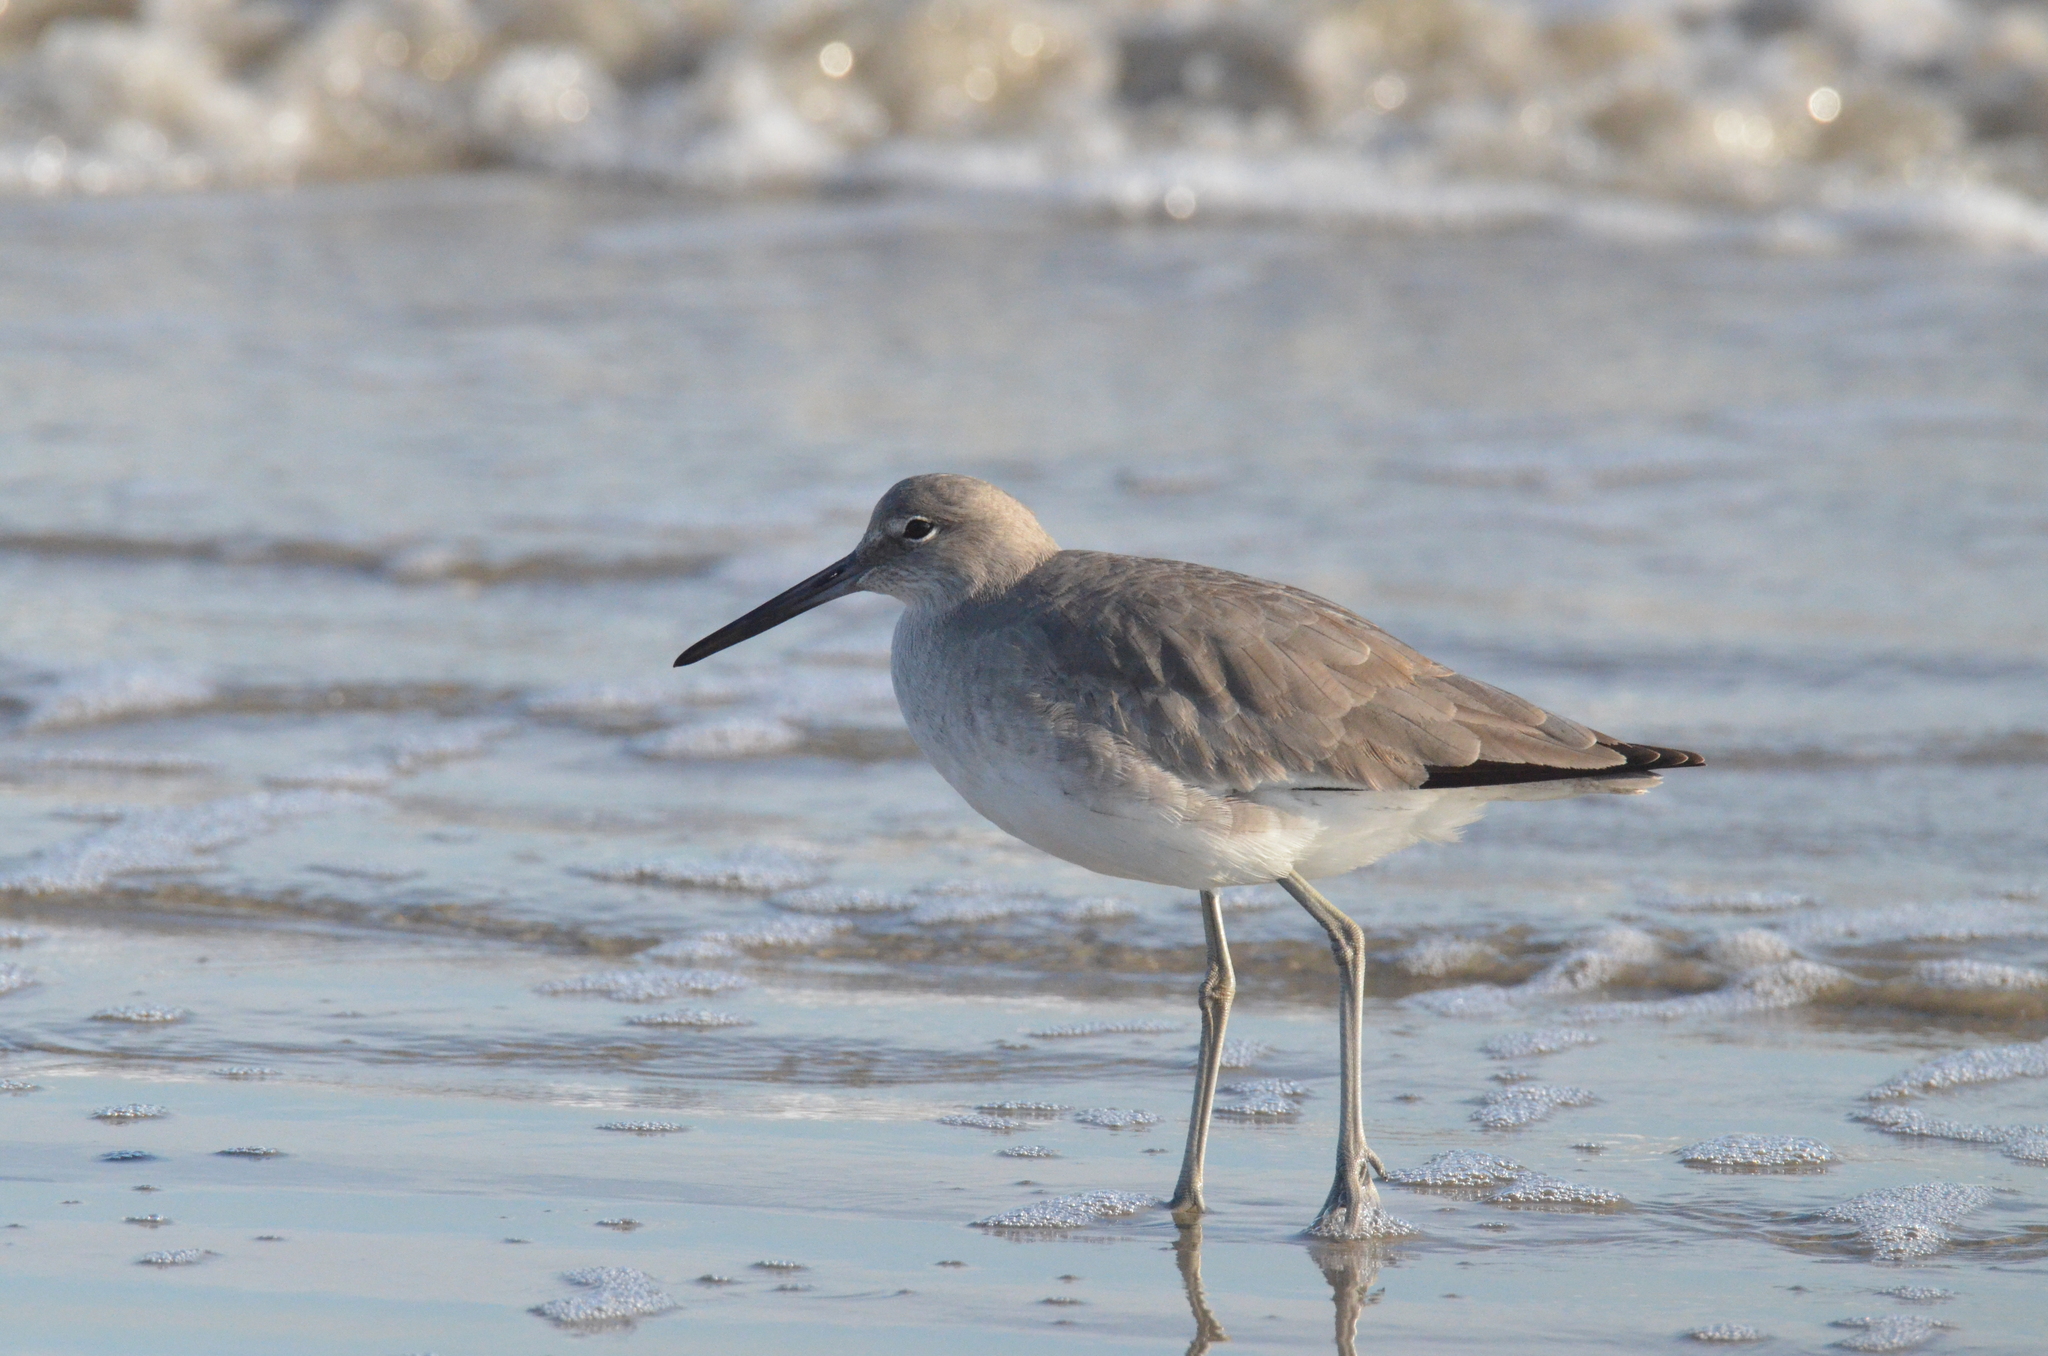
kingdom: Animalia
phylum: Chordata
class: Aves
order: Charadriiformes
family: Scolopacidae
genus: Tringa
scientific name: Tringa semipalmata
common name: Willet
